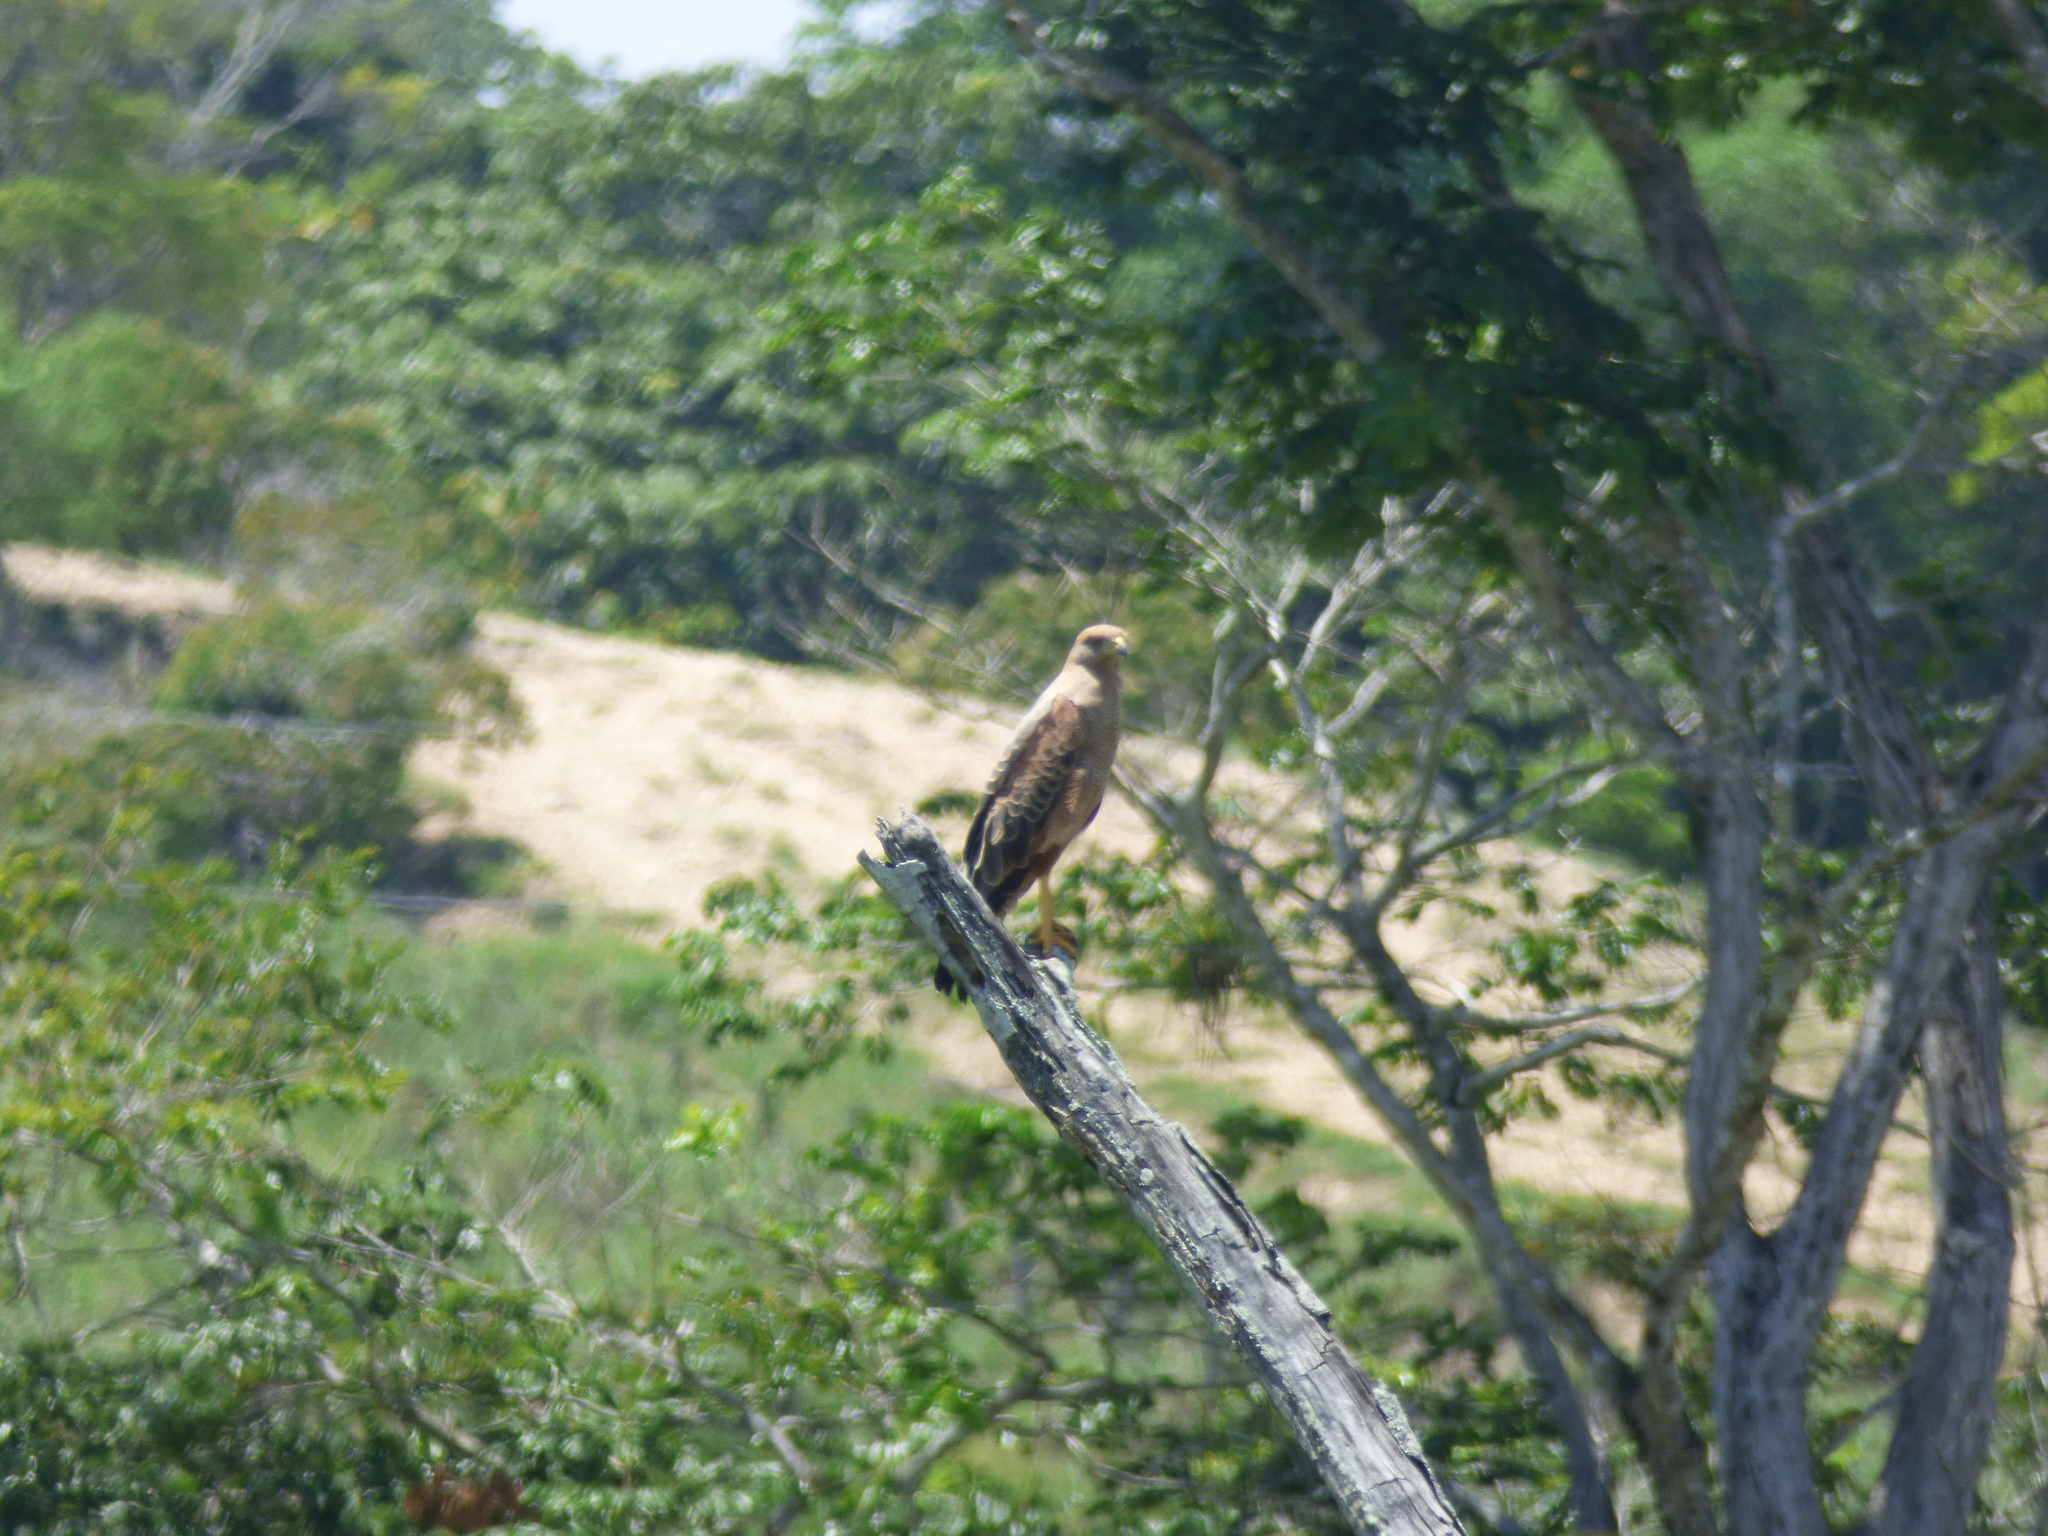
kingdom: Animalia
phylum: Chordata
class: Aves
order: Accipitriformes
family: Accipitridae
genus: Buteogallus
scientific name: Buteogallus meridionalis
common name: Savanna hawk
